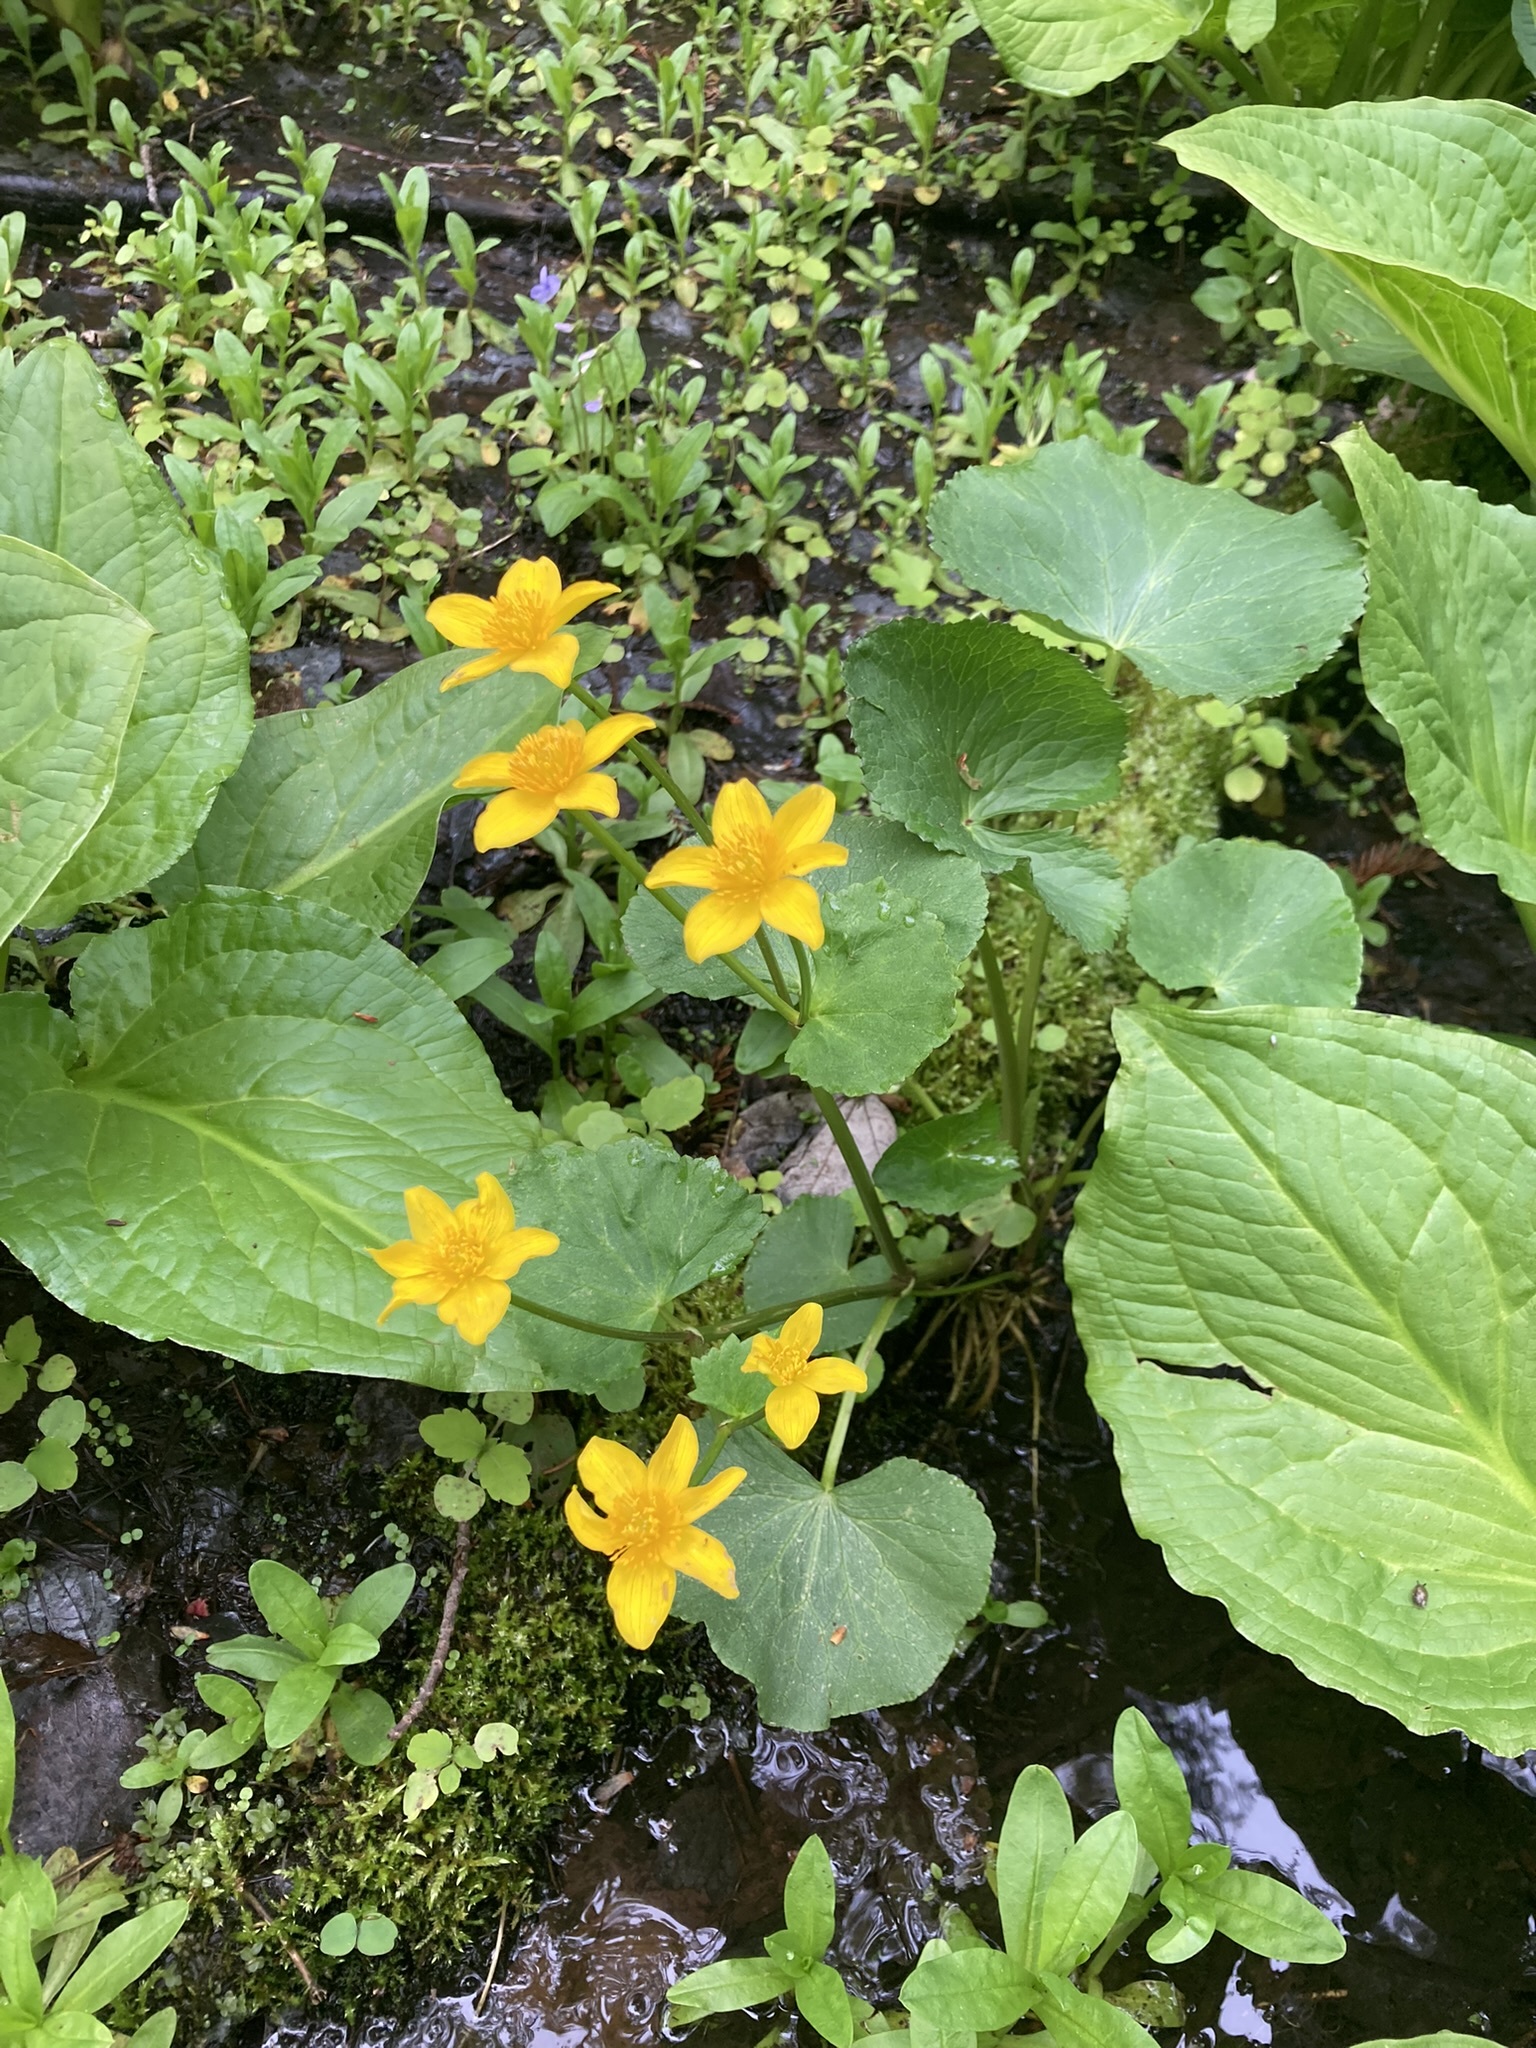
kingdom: Plantae
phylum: Tracheophyta
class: Magnoliopsida
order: Ranunculales
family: Ranunculaceae
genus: Caltha
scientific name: Caltha palustris
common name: Marsh marigold
